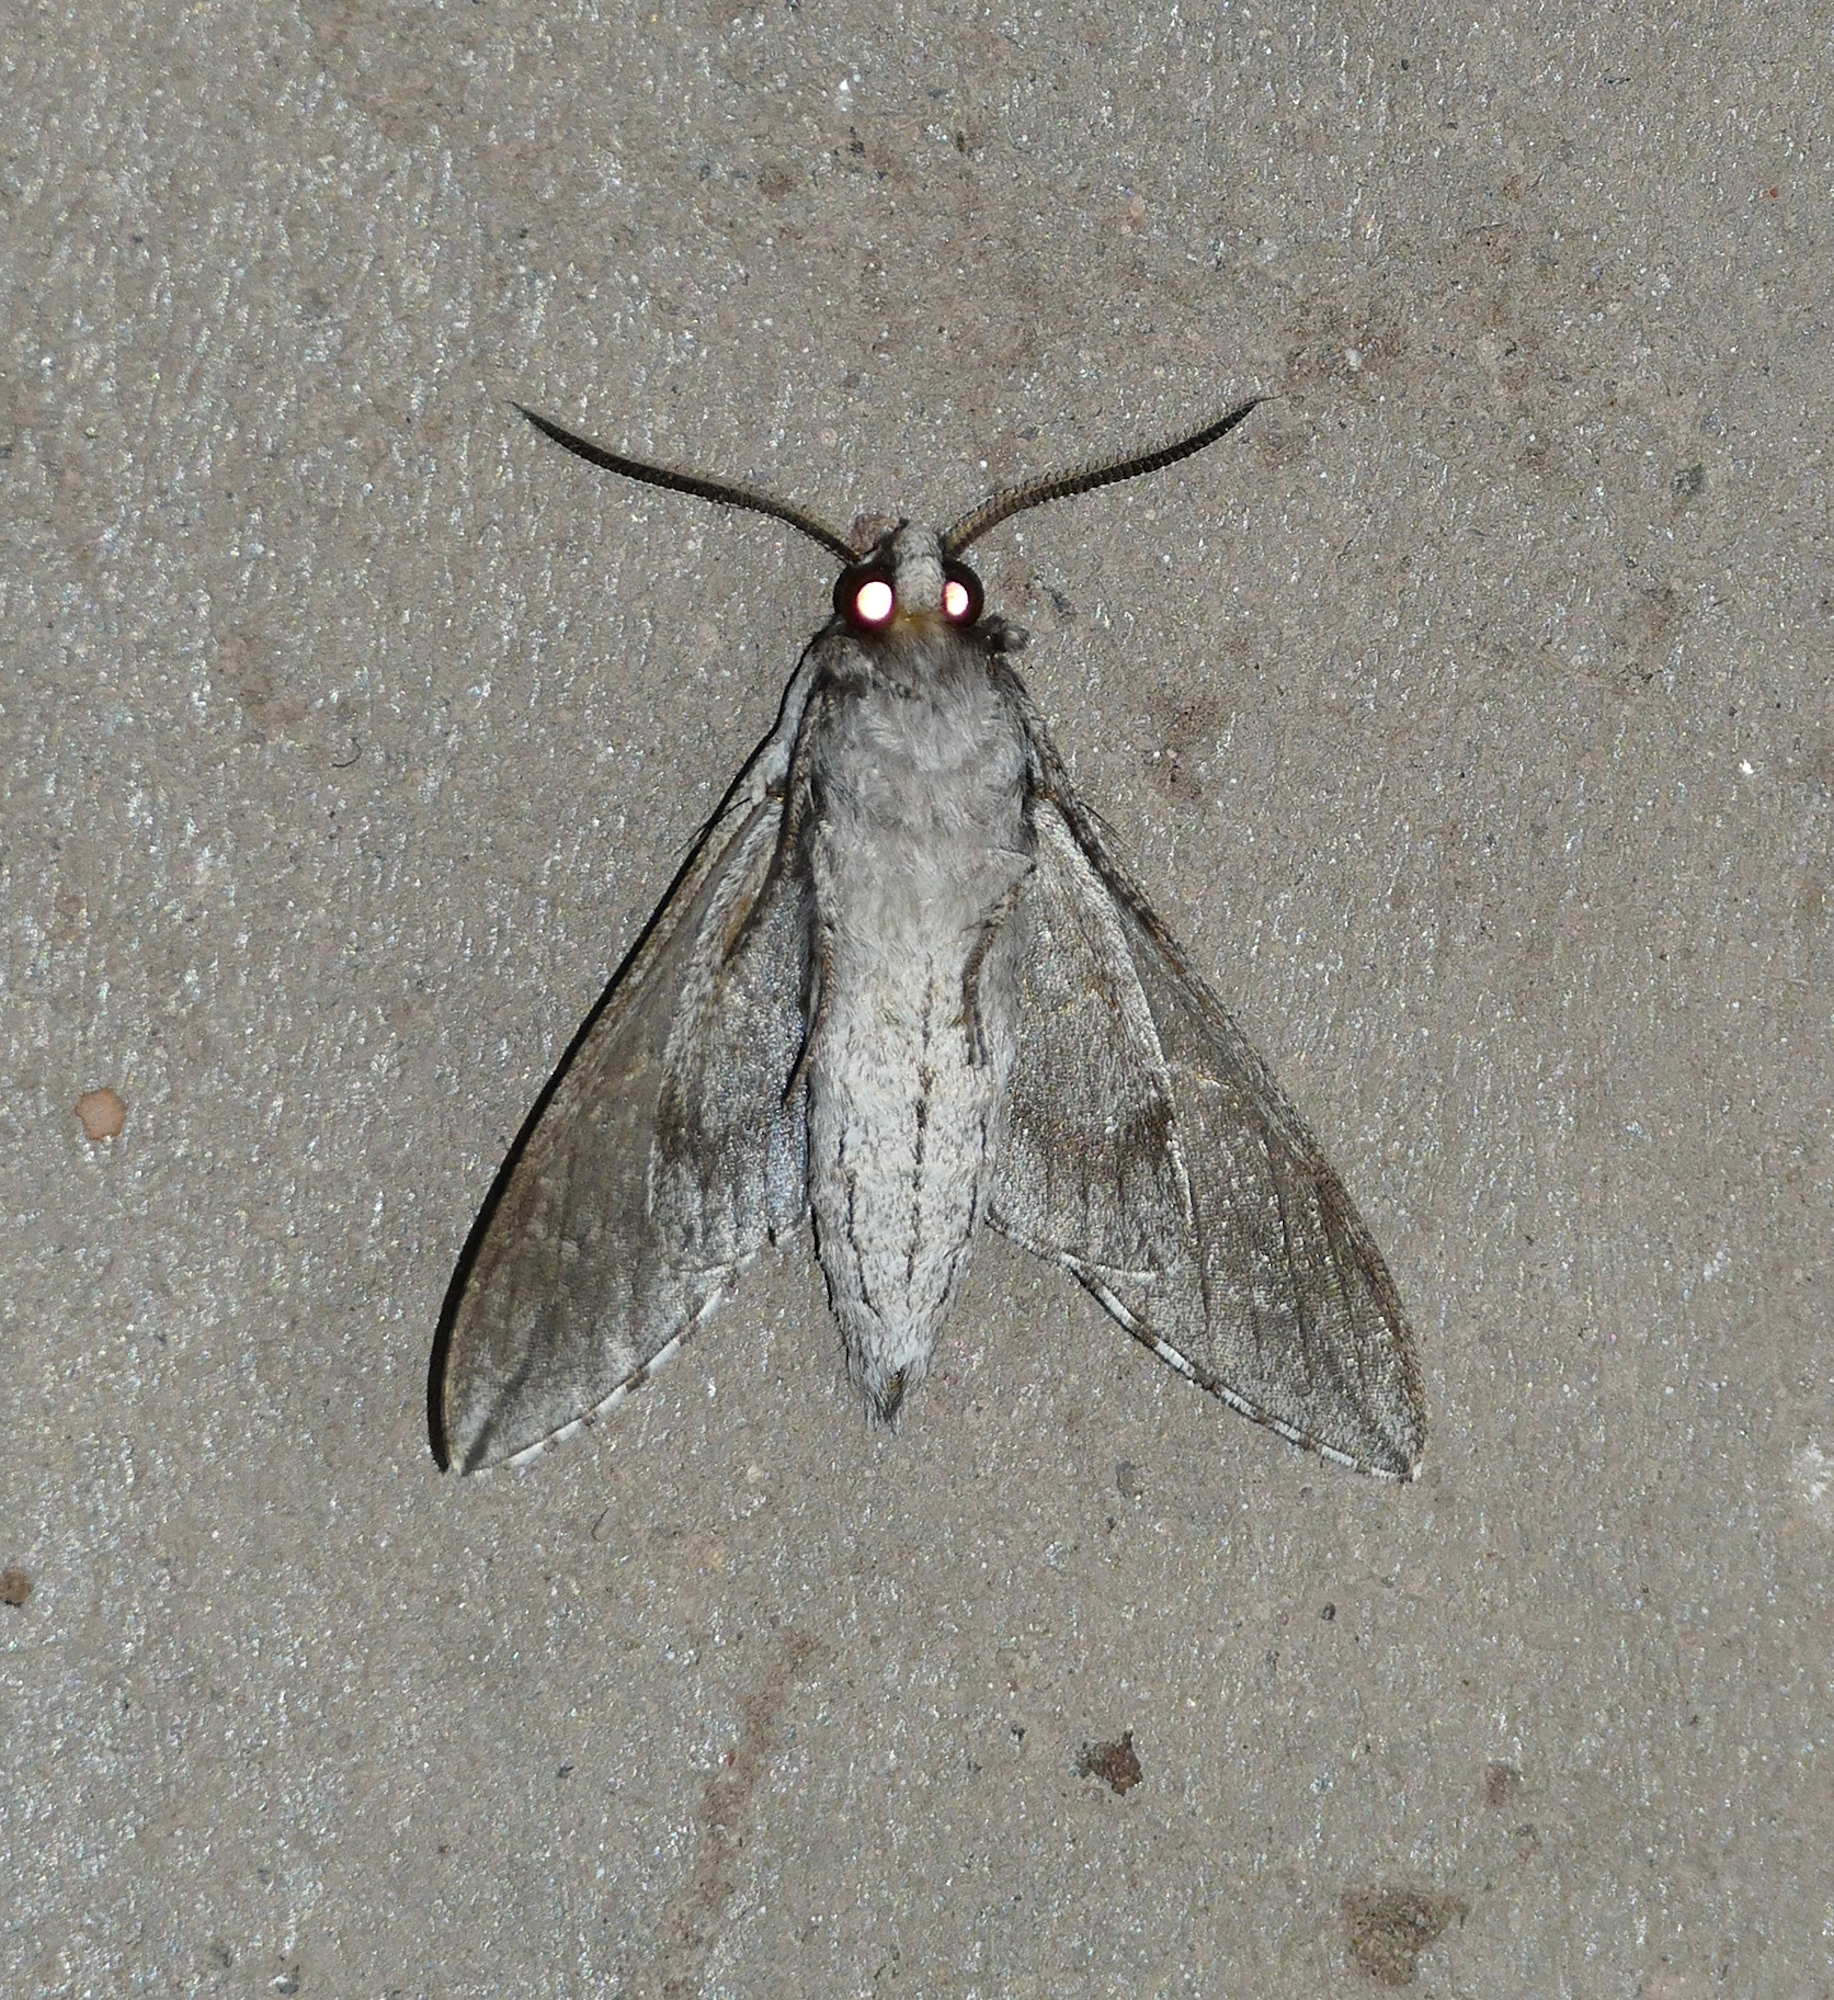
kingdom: Animalia
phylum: Arthropoda
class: Insecta
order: Lepidoptera
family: Sphingidae
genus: Sphinx
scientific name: Sphinx dollii
